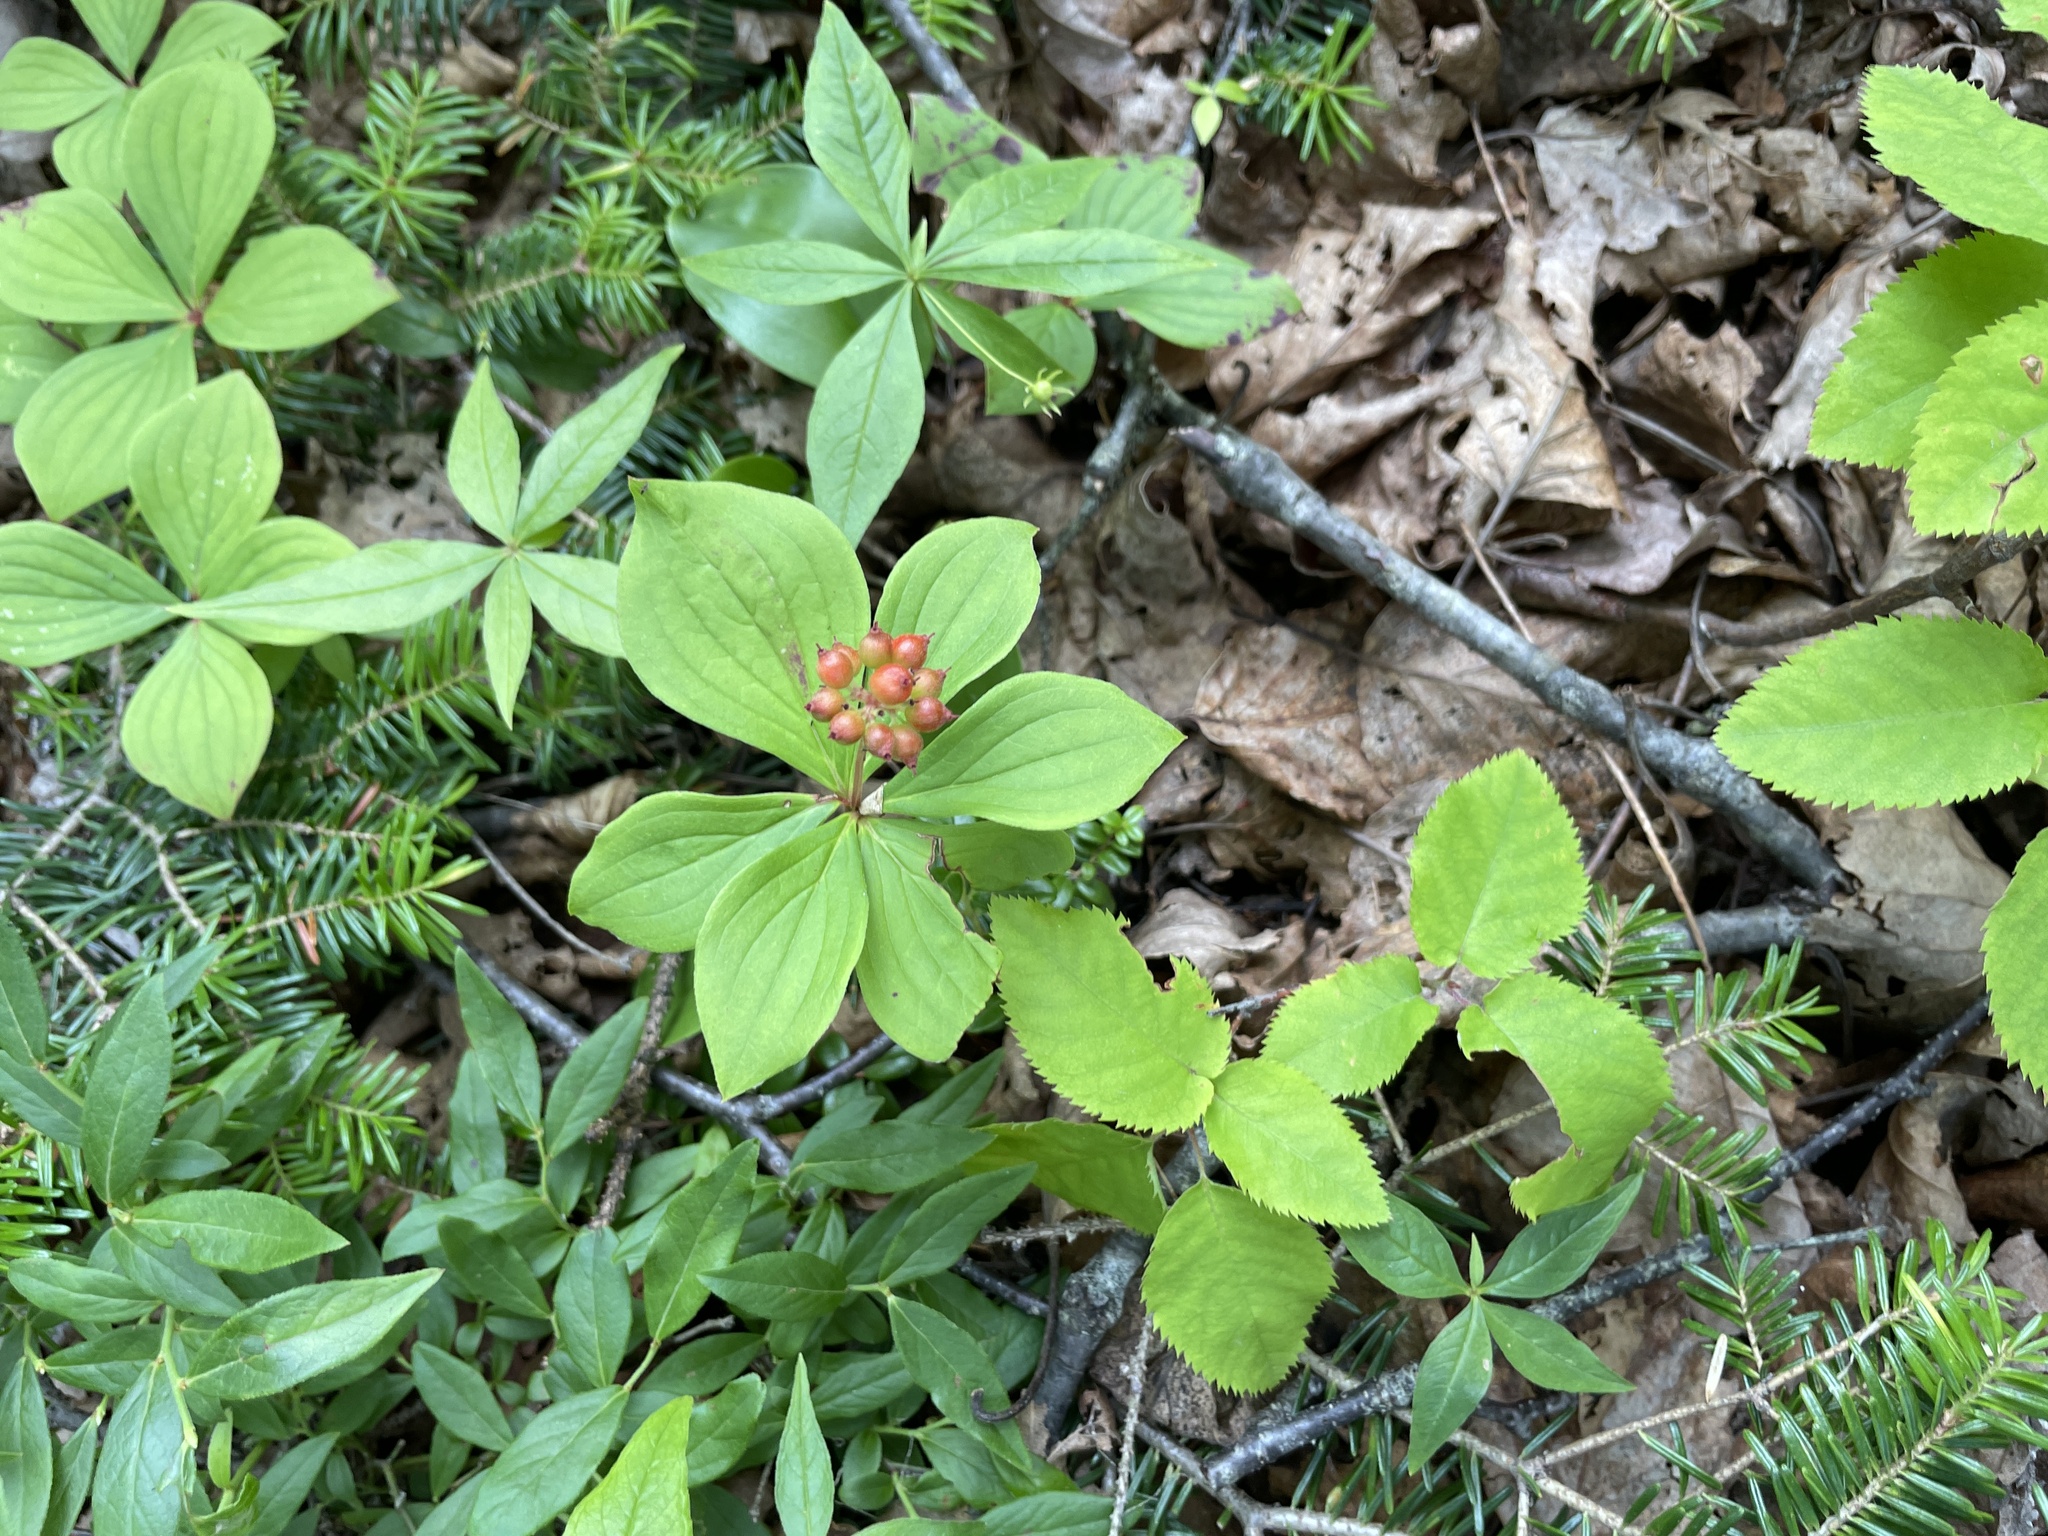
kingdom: Plantae
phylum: Tracheophyta
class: Magnoliopsida
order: Cornales
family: Cornaceae
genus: Cornus
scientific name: Cornus canadensis
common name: Creeping dogwood
